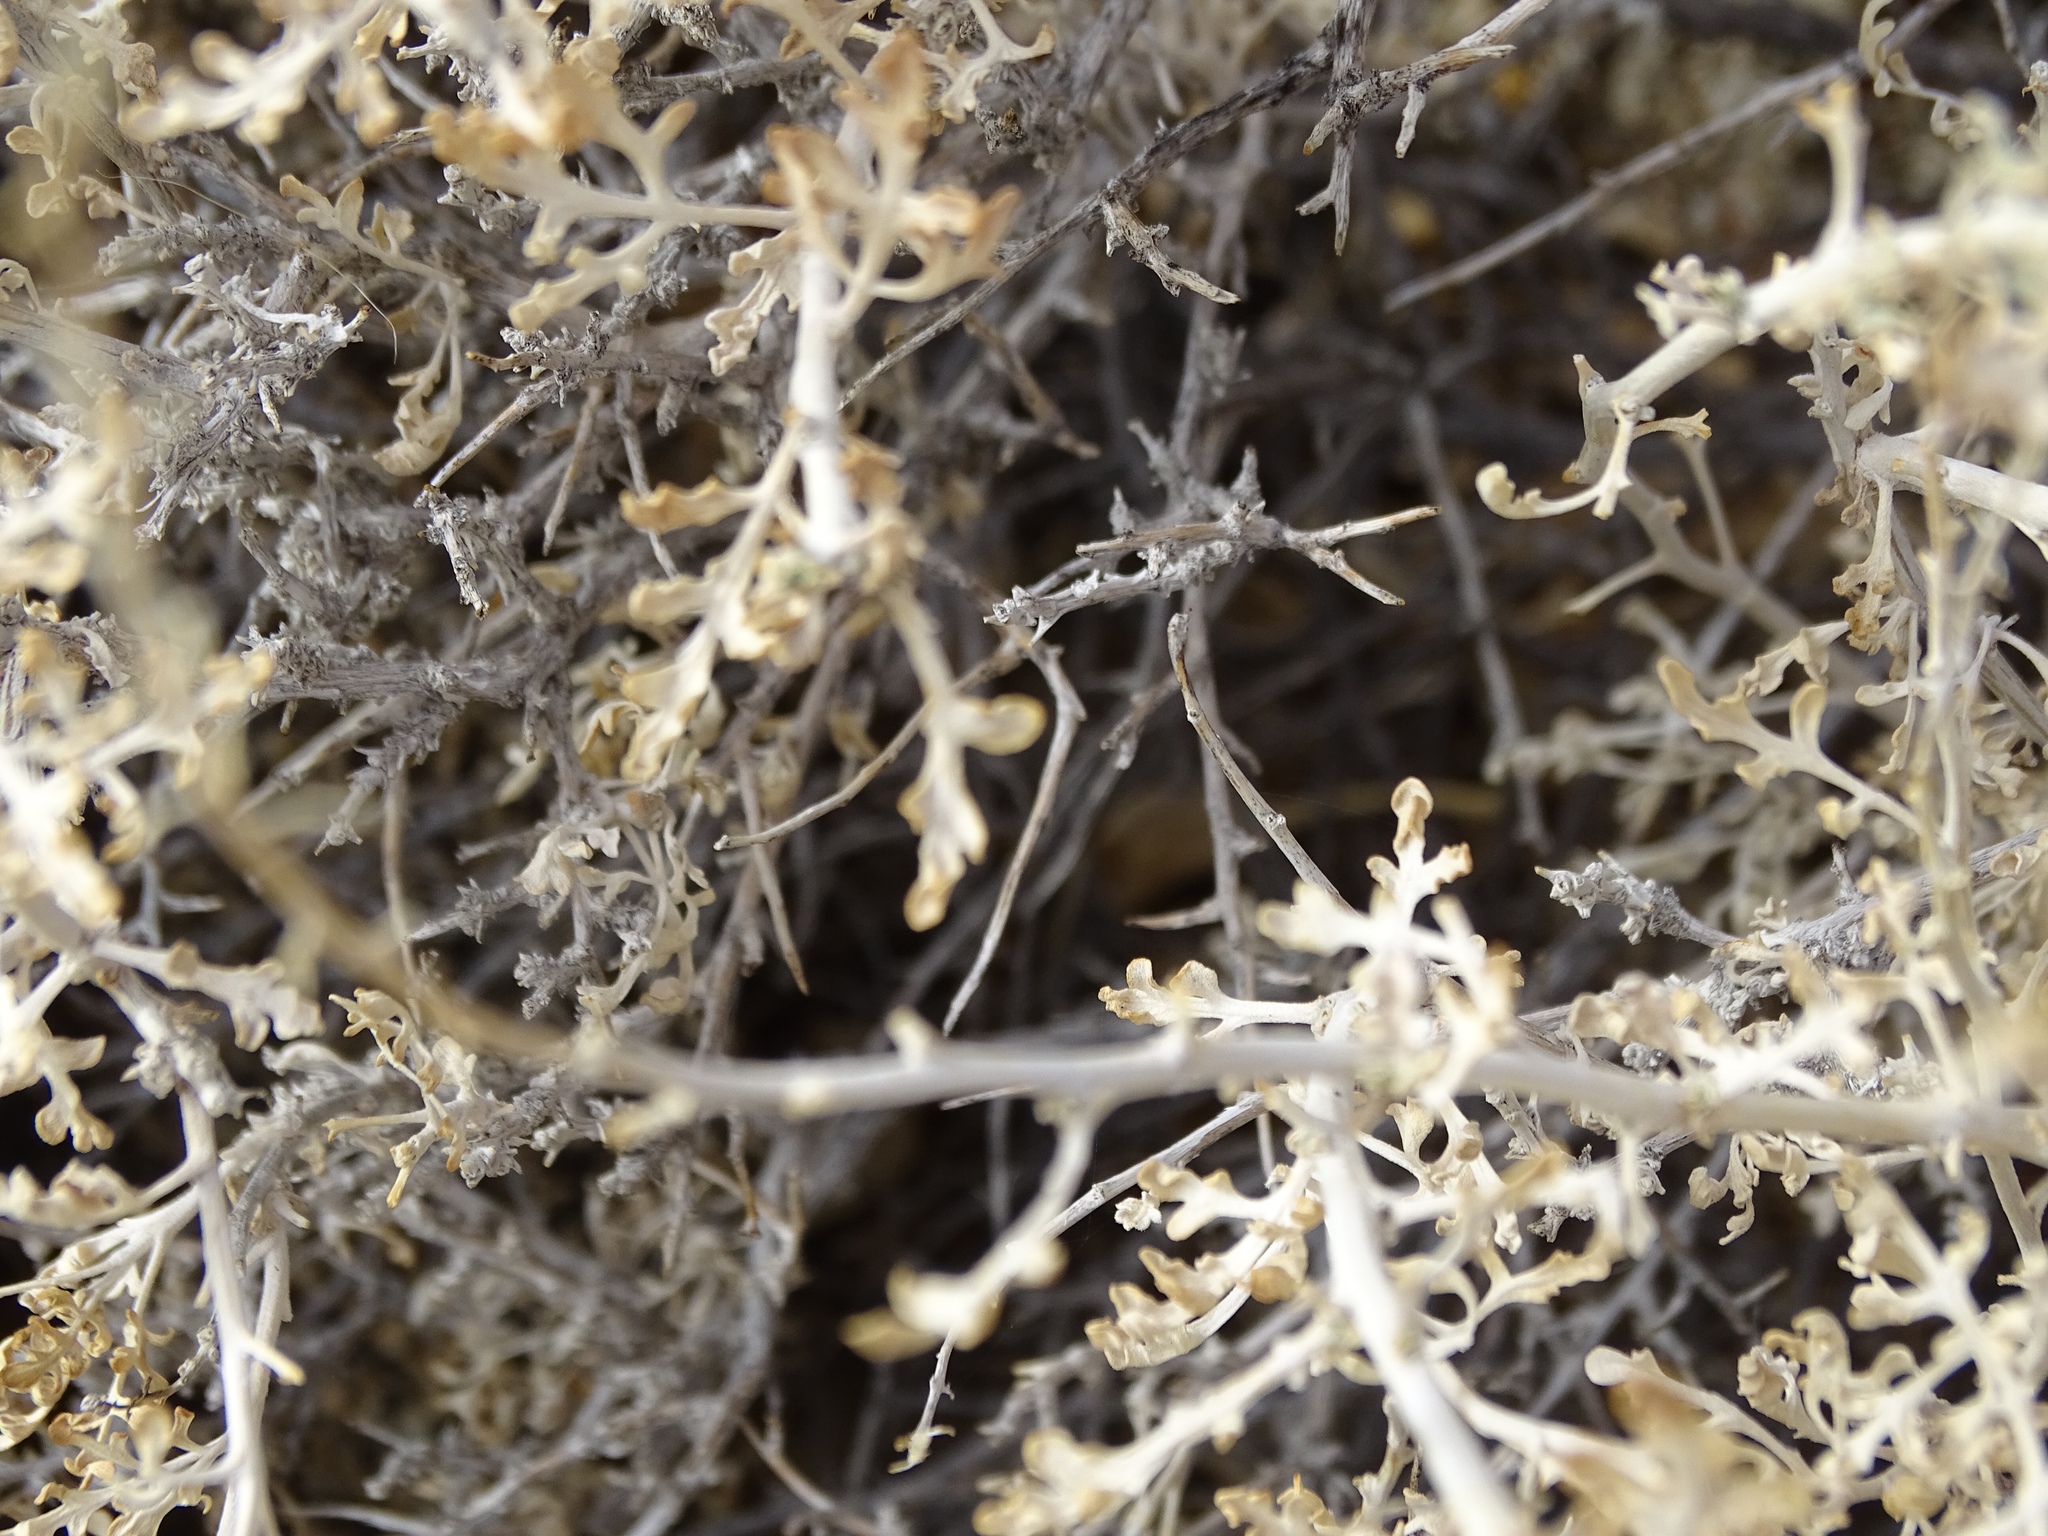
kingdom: Plantae
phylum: Tracheophyta
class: Magnoliopsida
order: Asterales
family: Asteraceae
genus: Ambrosia
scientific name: Ambrosia dumosa
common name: Bur-sage
